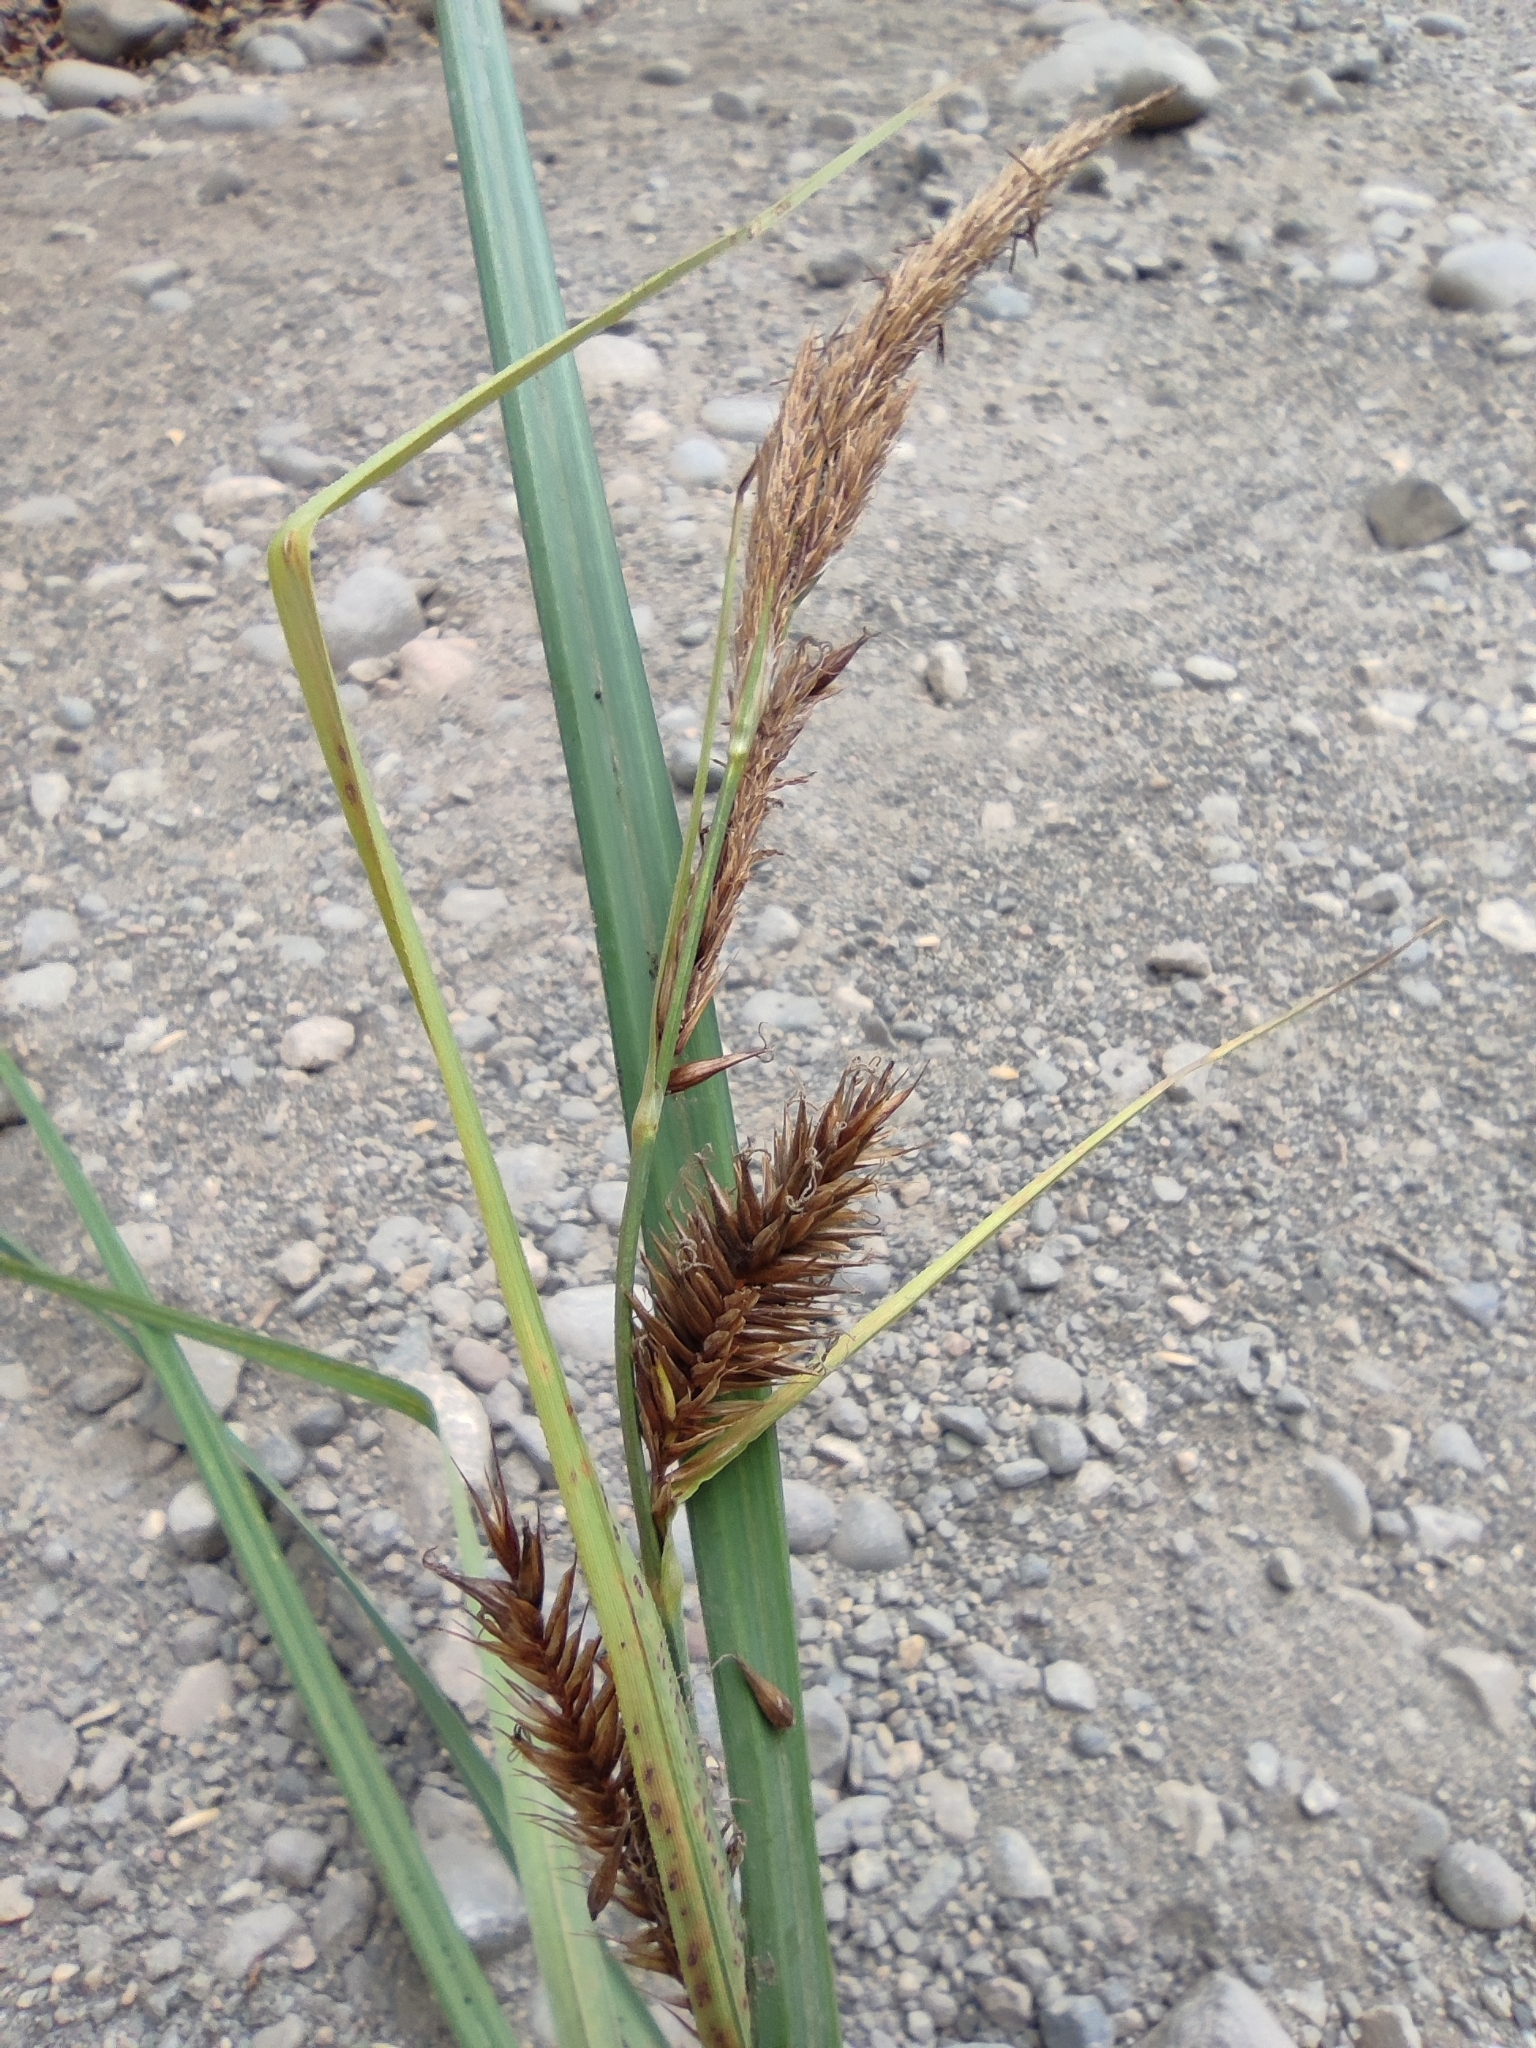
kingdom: Plantae
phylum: Tracheophyta
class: Liliopsida
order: Poales
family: Cyperaceae
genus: Carex
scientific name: Carex chilensis
